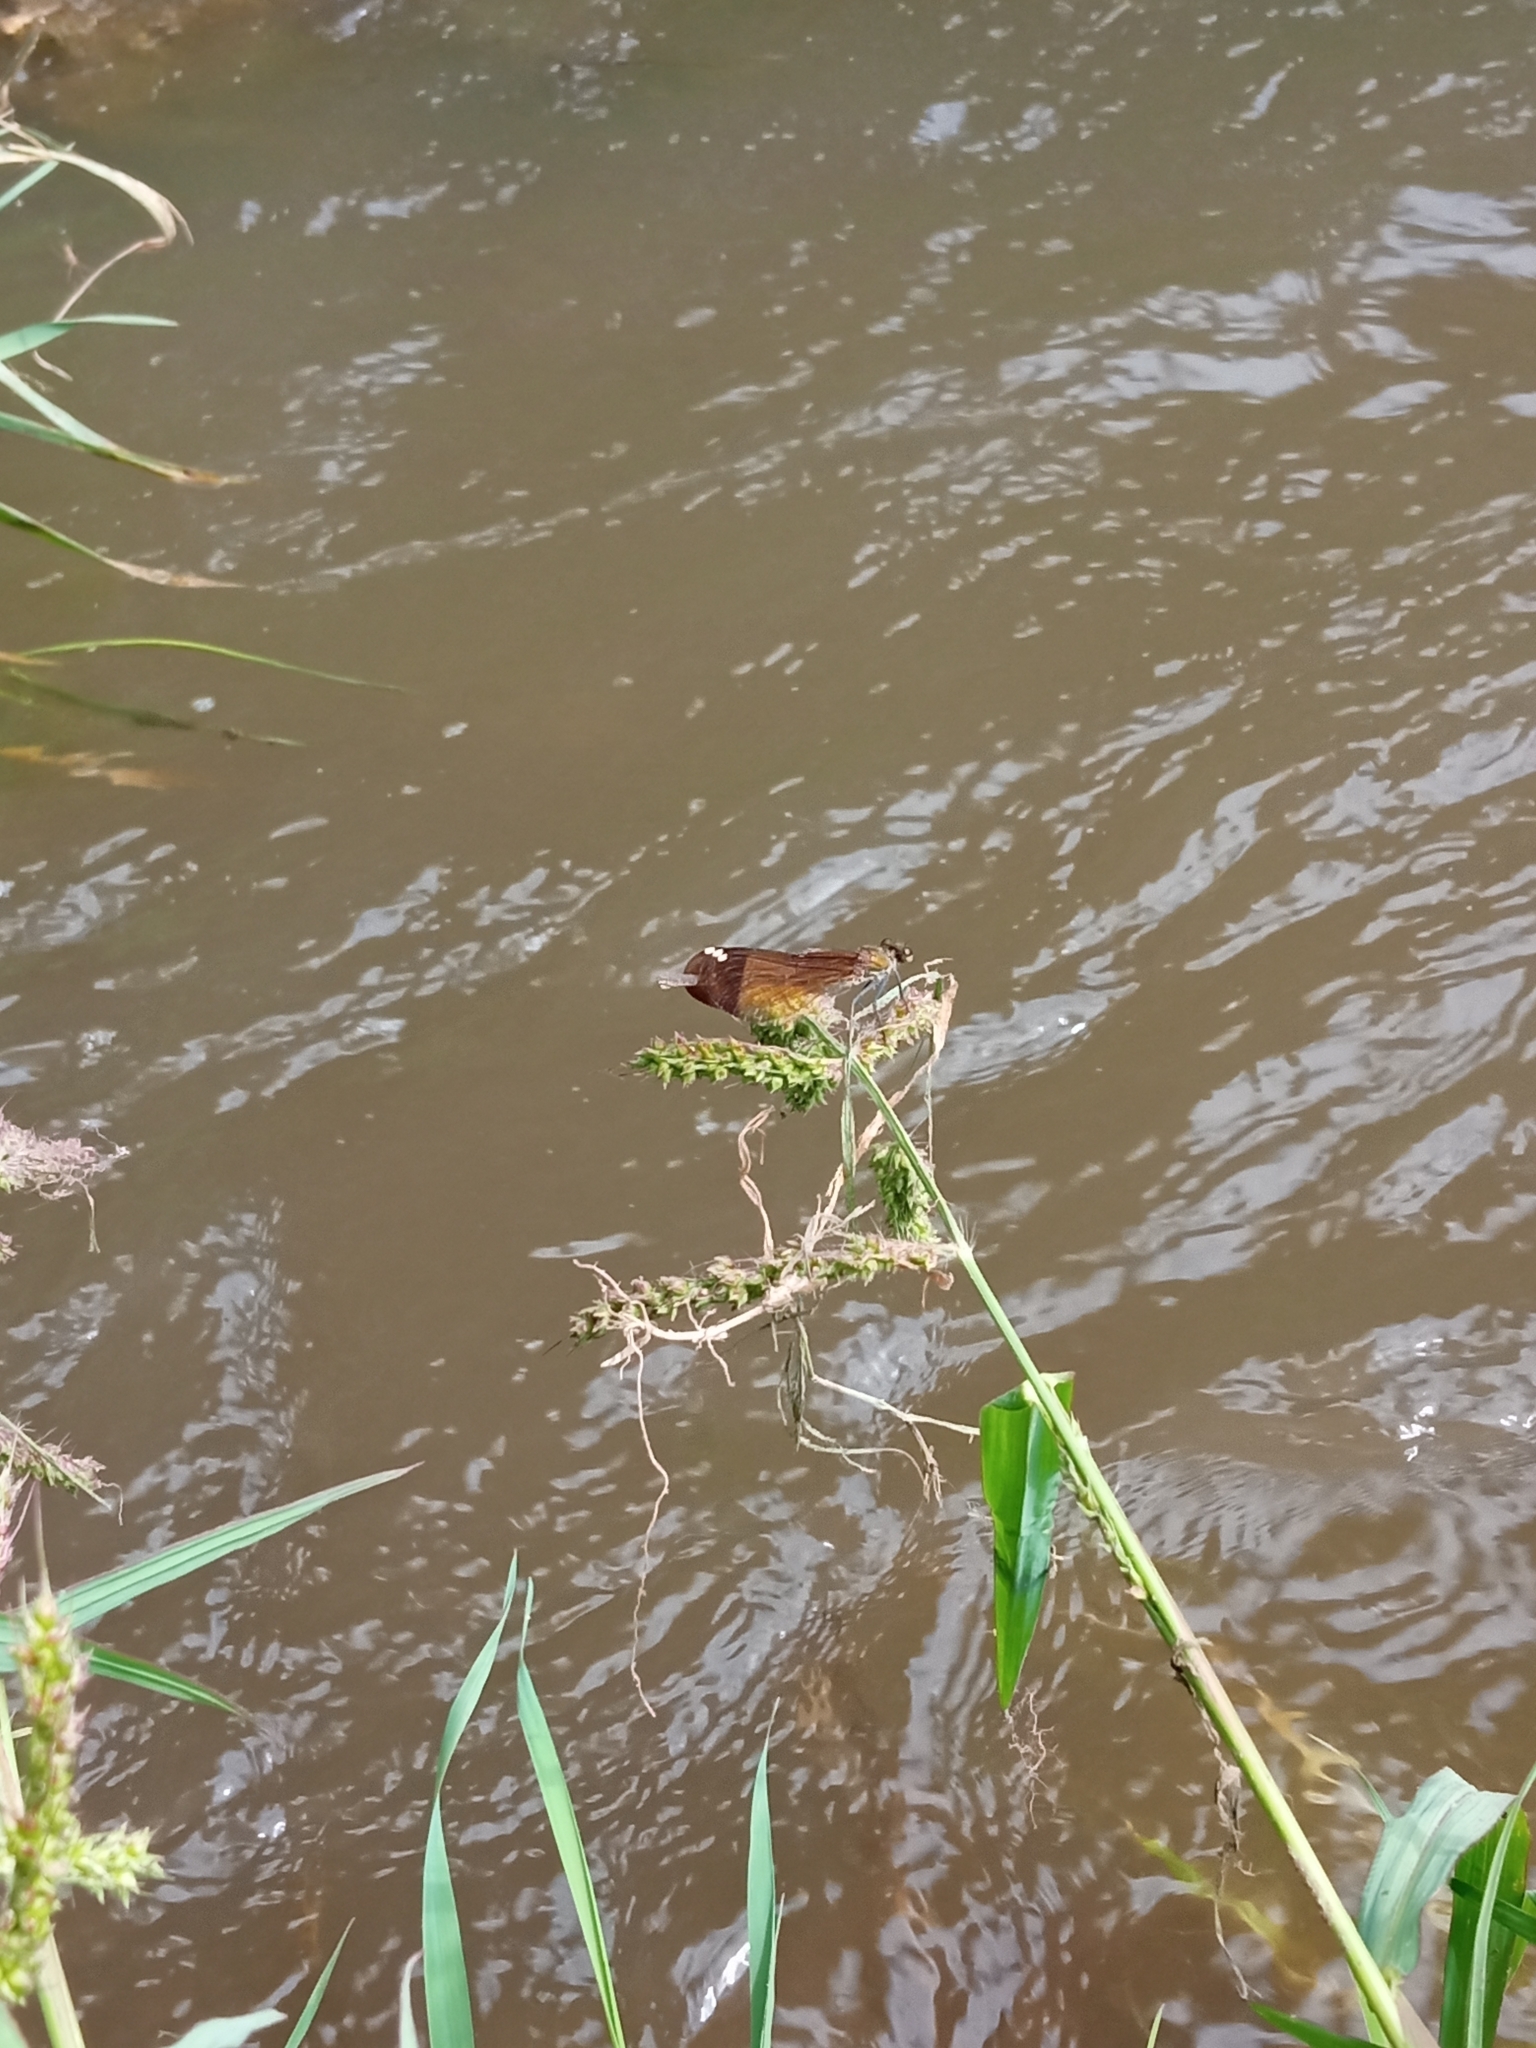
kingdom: Animalia
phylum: Arthropoda
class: Insecta
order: Odonata
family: Calopterygidae
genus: Calopteryx
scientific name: Calopteryx haemorrhoidalis
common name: Copper demoiselle
